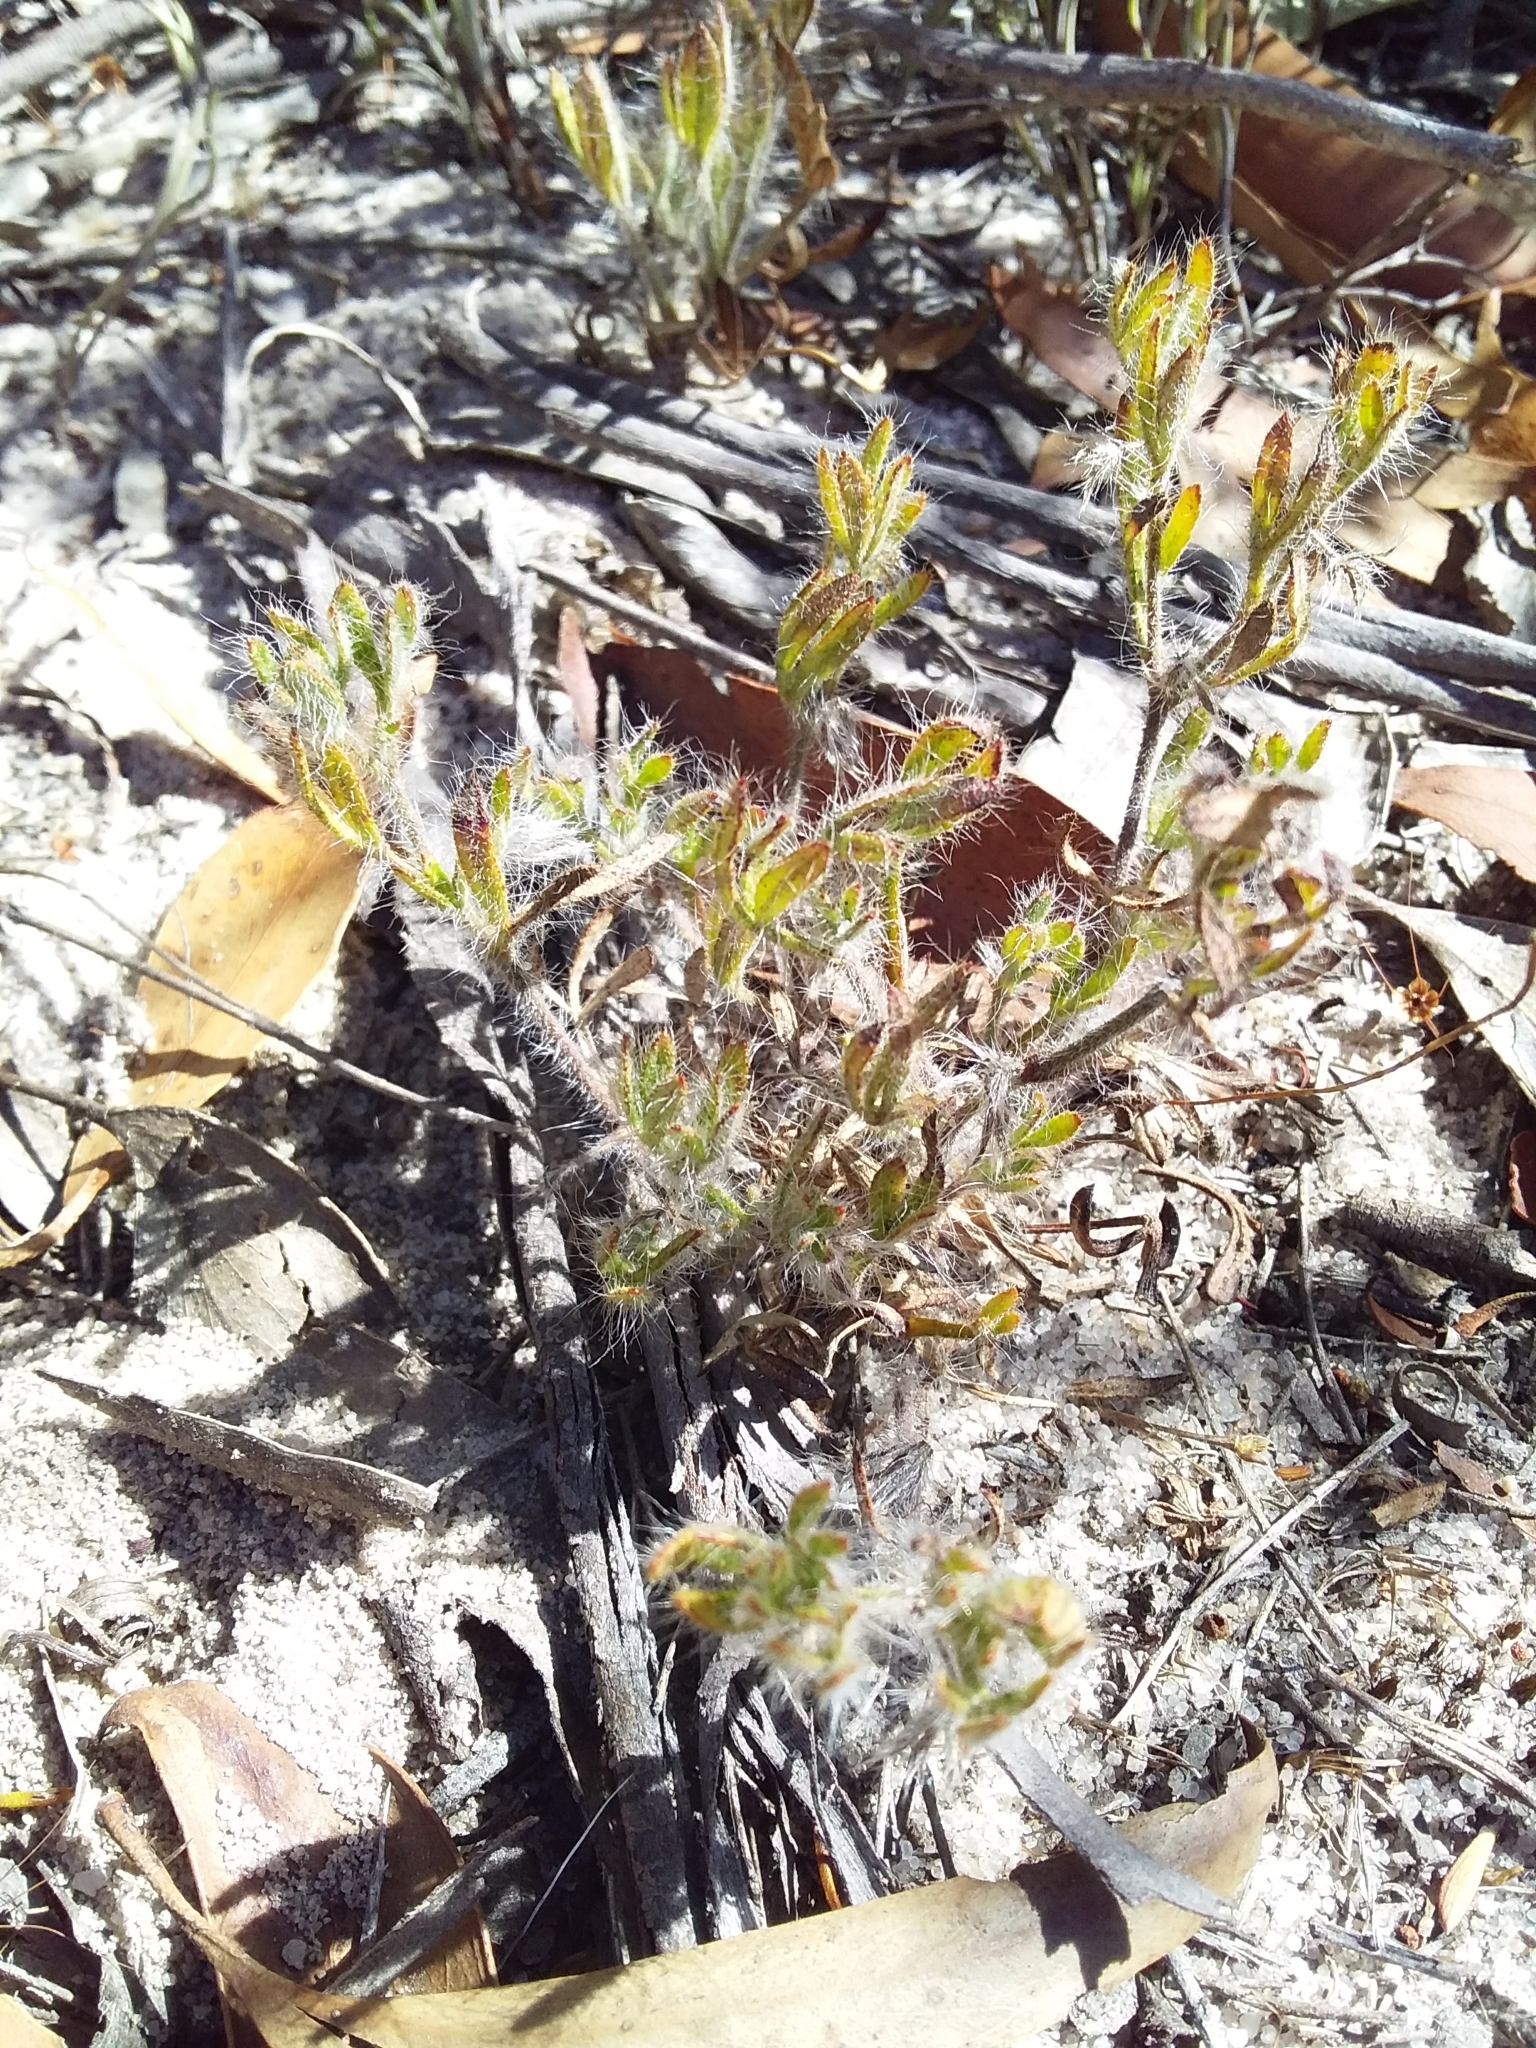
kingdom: Plantae
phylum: Tracheophyta
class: Magnoliopsida
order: Apiales
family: Apiaceae
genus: Xanthosia
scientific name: Xanthosia huegelii
